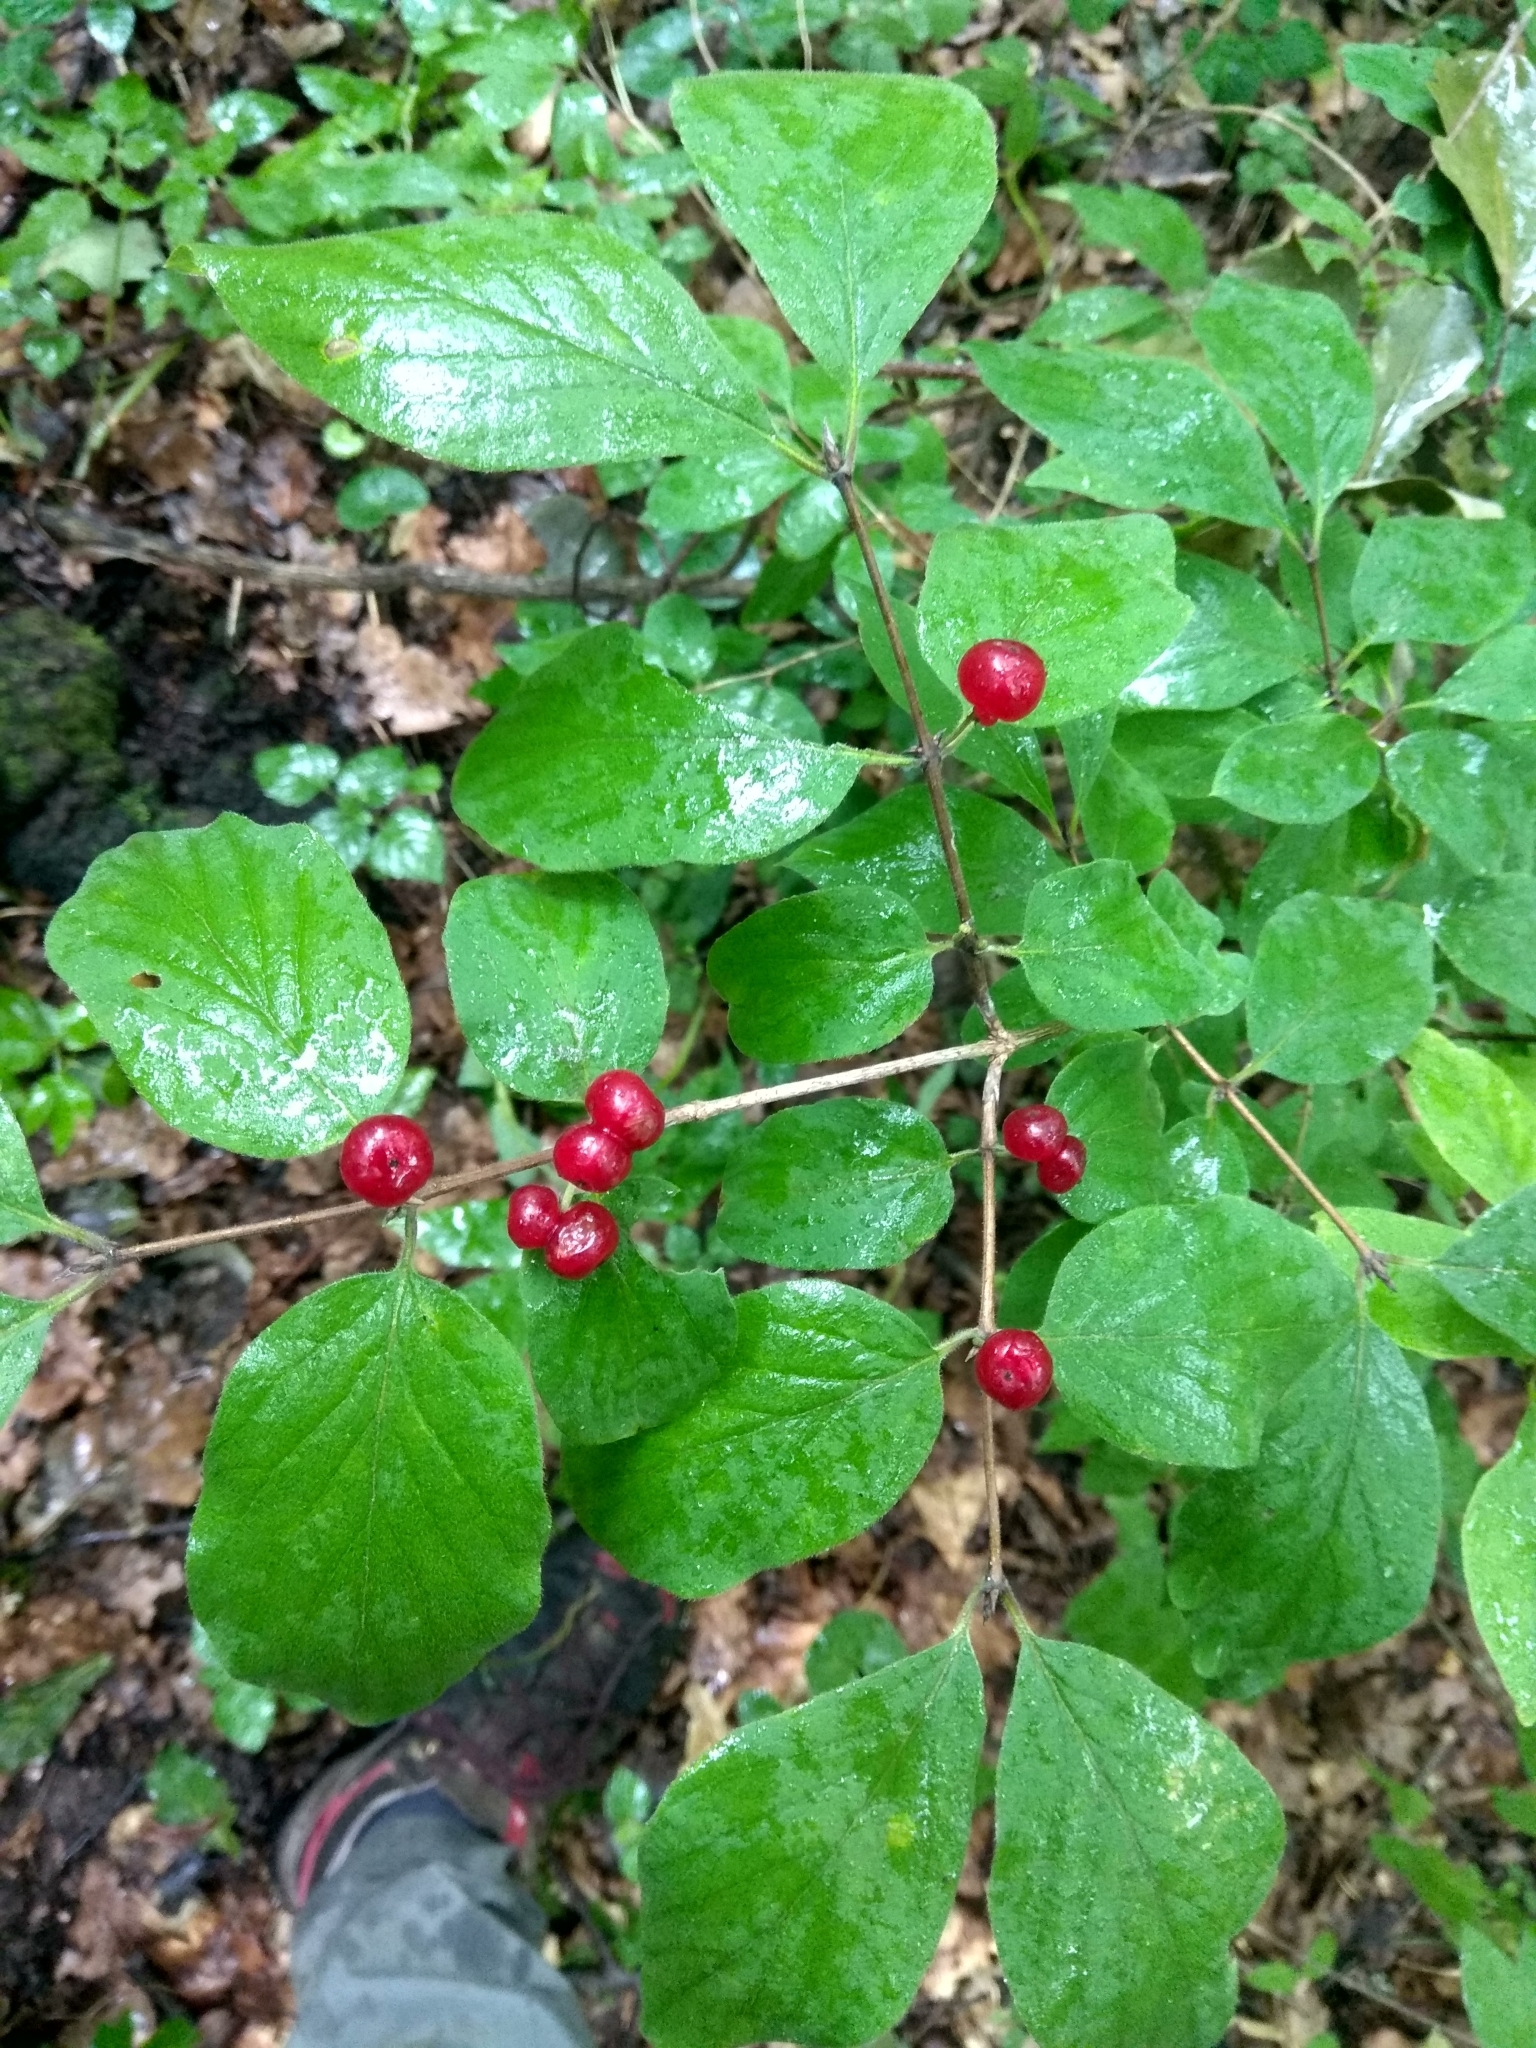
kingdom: Plantae
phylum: Tracheophyta
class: Magnoliopsida
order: Dipsacales
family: Caprifoliaceae
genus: Lonicera
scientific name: Lonicera xylosteum
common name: Fly honeysuckle
